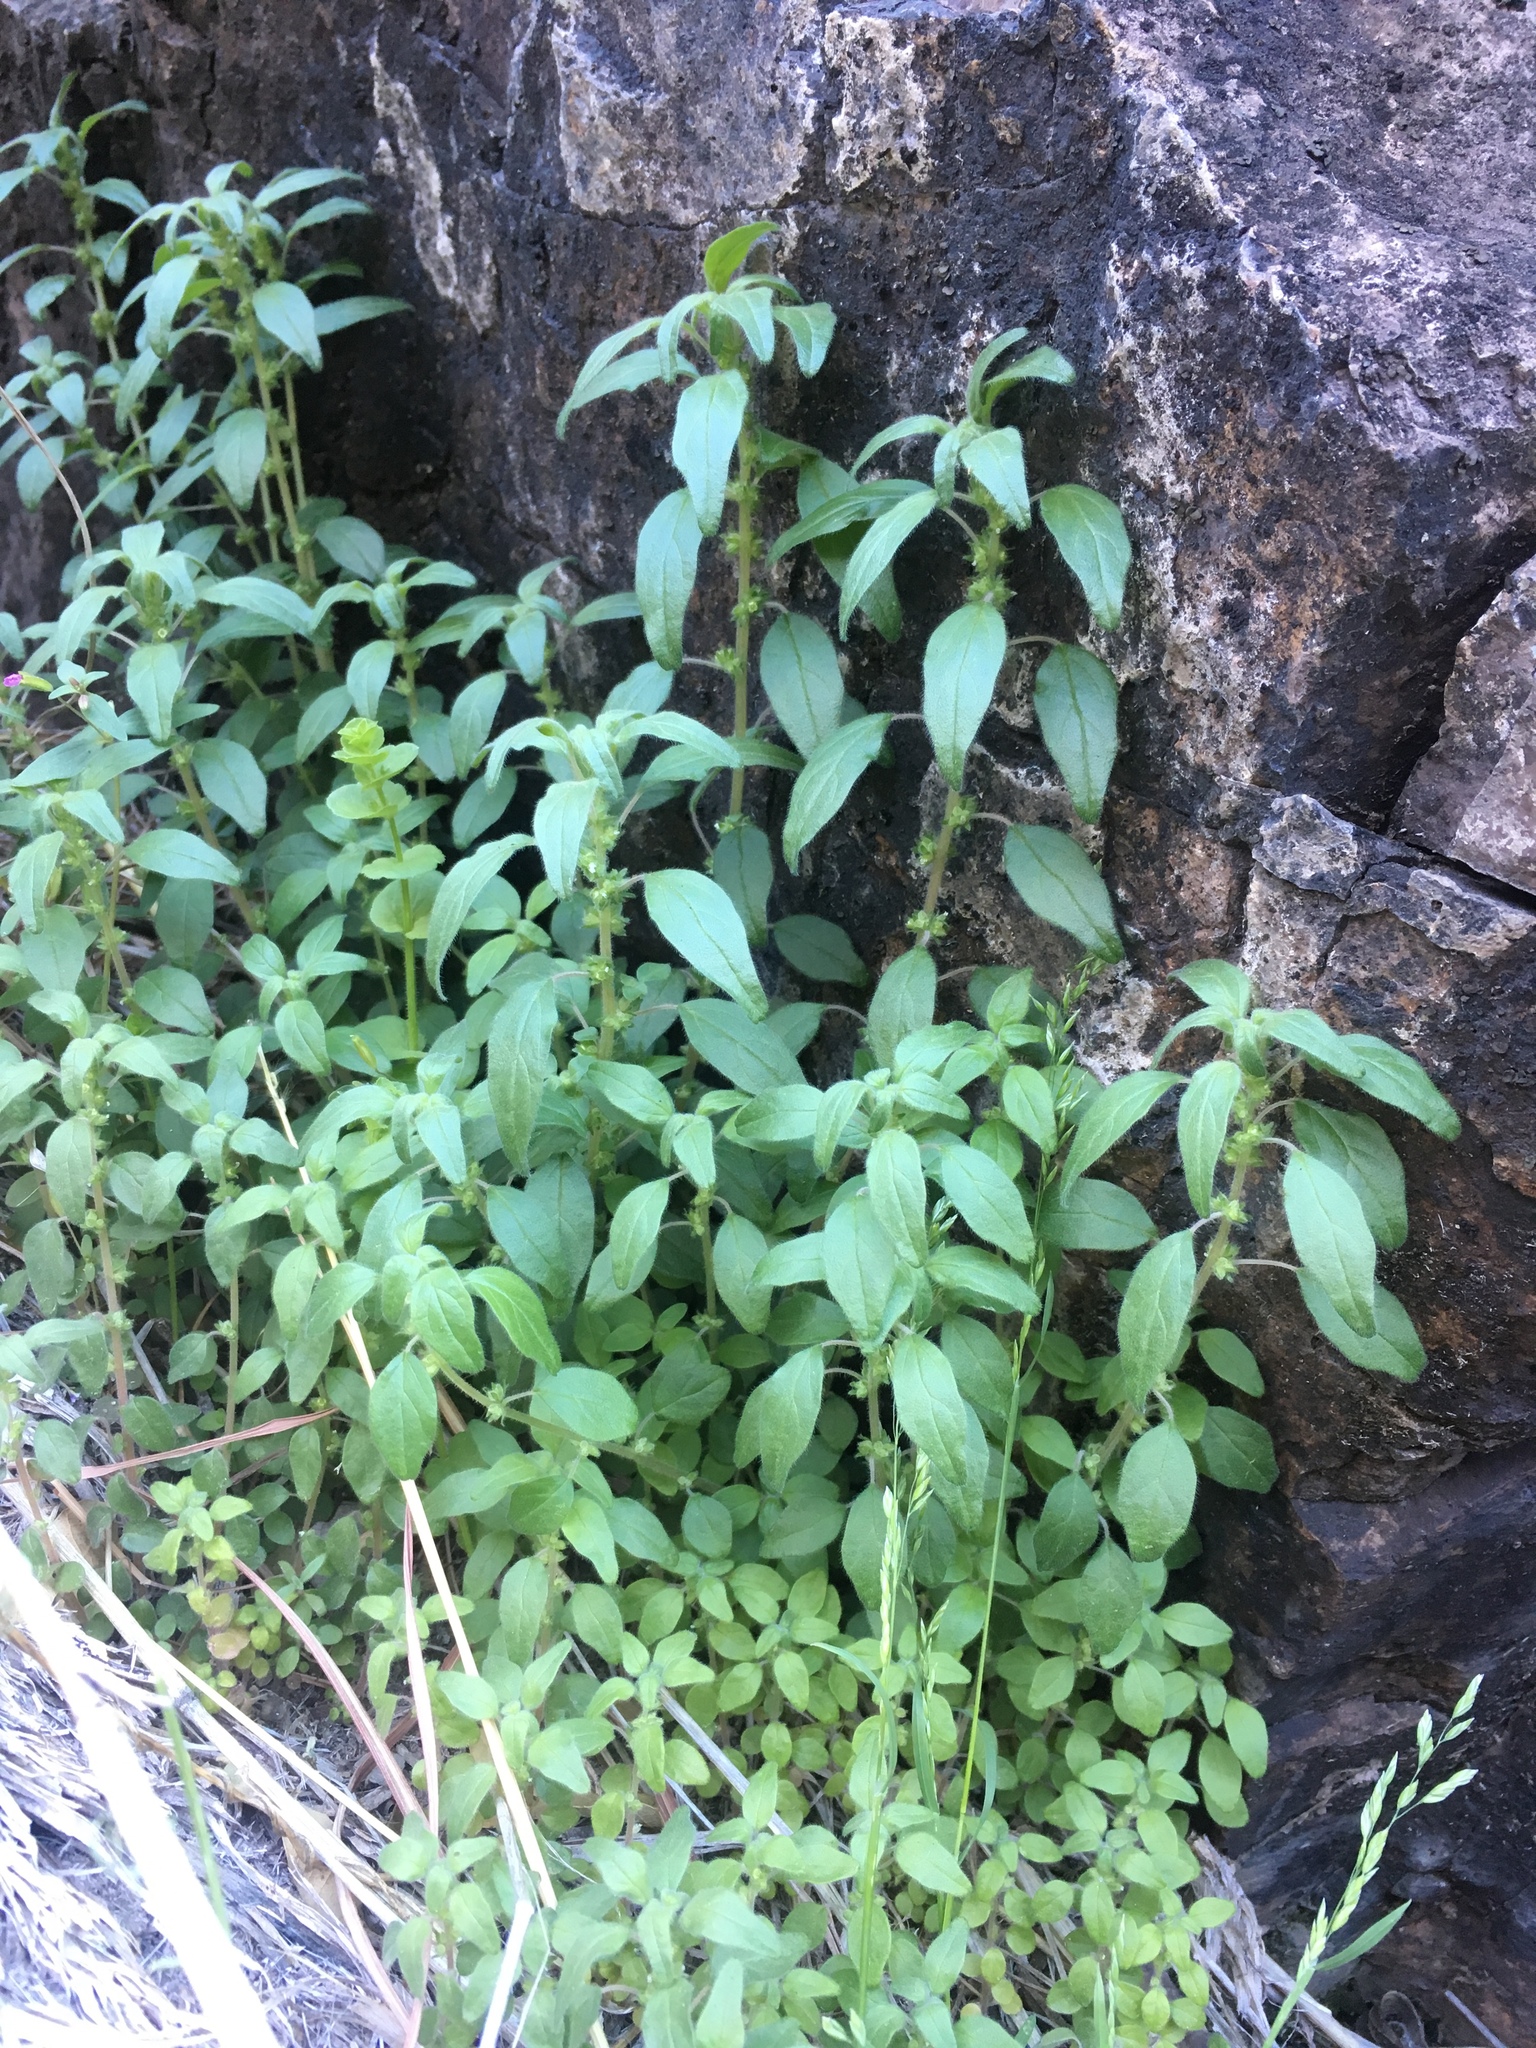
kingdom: Plantae
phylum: Tracheophyta
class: Magnoliopsida
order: Rosales
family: Urticaceae
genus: Parietaria
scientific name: Parietaria pensylvanica
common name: Pennsylvania pellitory
